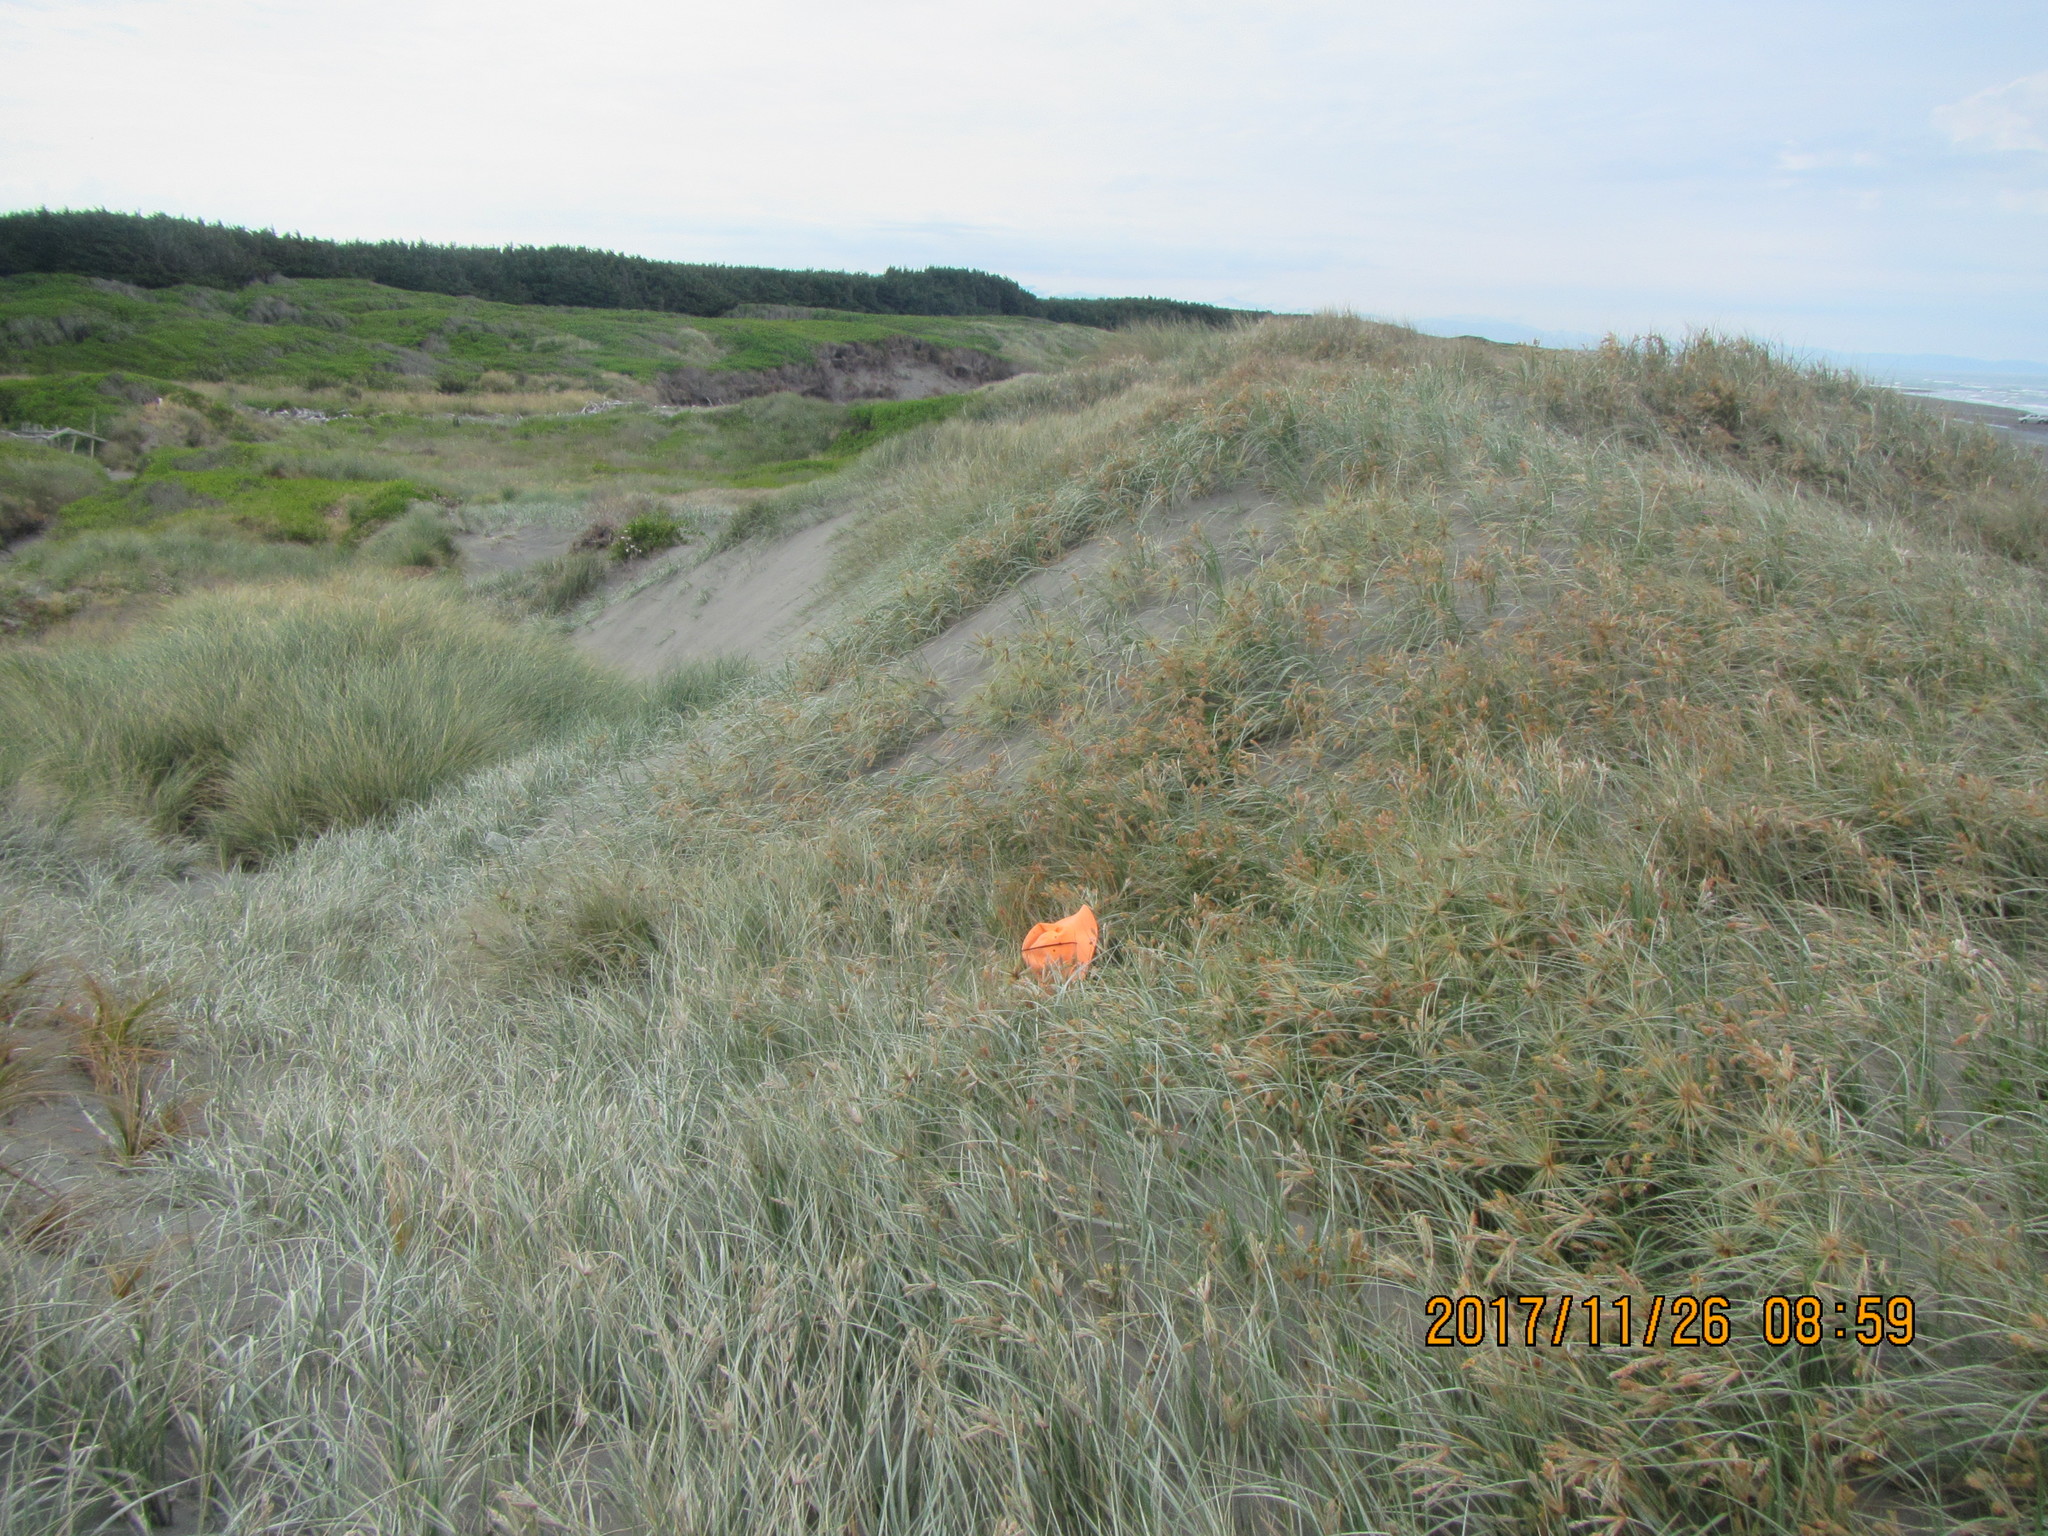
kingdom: Animalia
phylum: Arthropoda
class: Arachnida
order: Araneae
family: Theridiidae
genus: Steatoda
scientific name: Steatoda lepida
